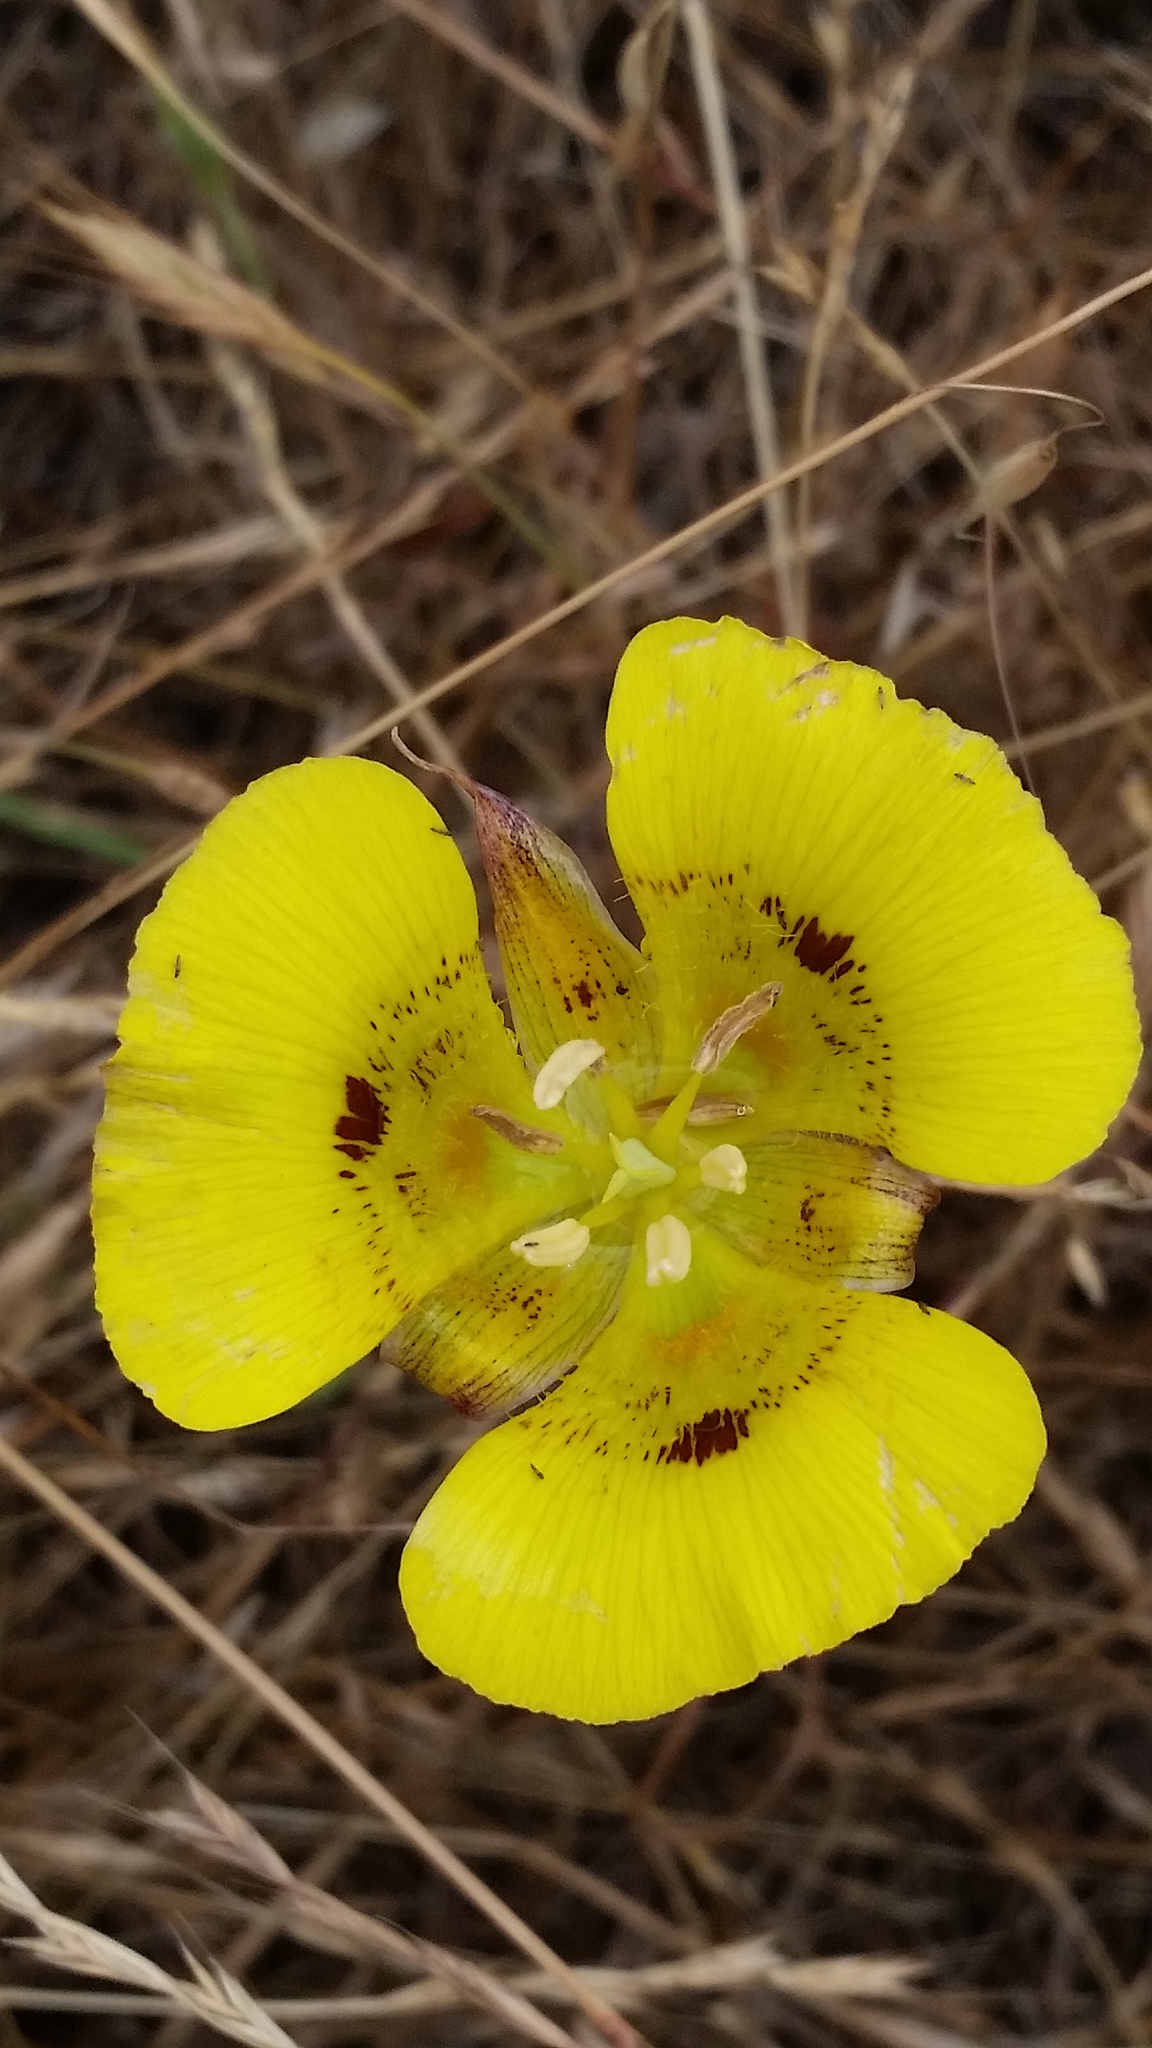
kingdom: Plantae
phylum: Tracheophyta
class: Liliopsida
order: Liliales
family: Liliaceae
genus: Calochortus
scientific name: Calochortus luteus
